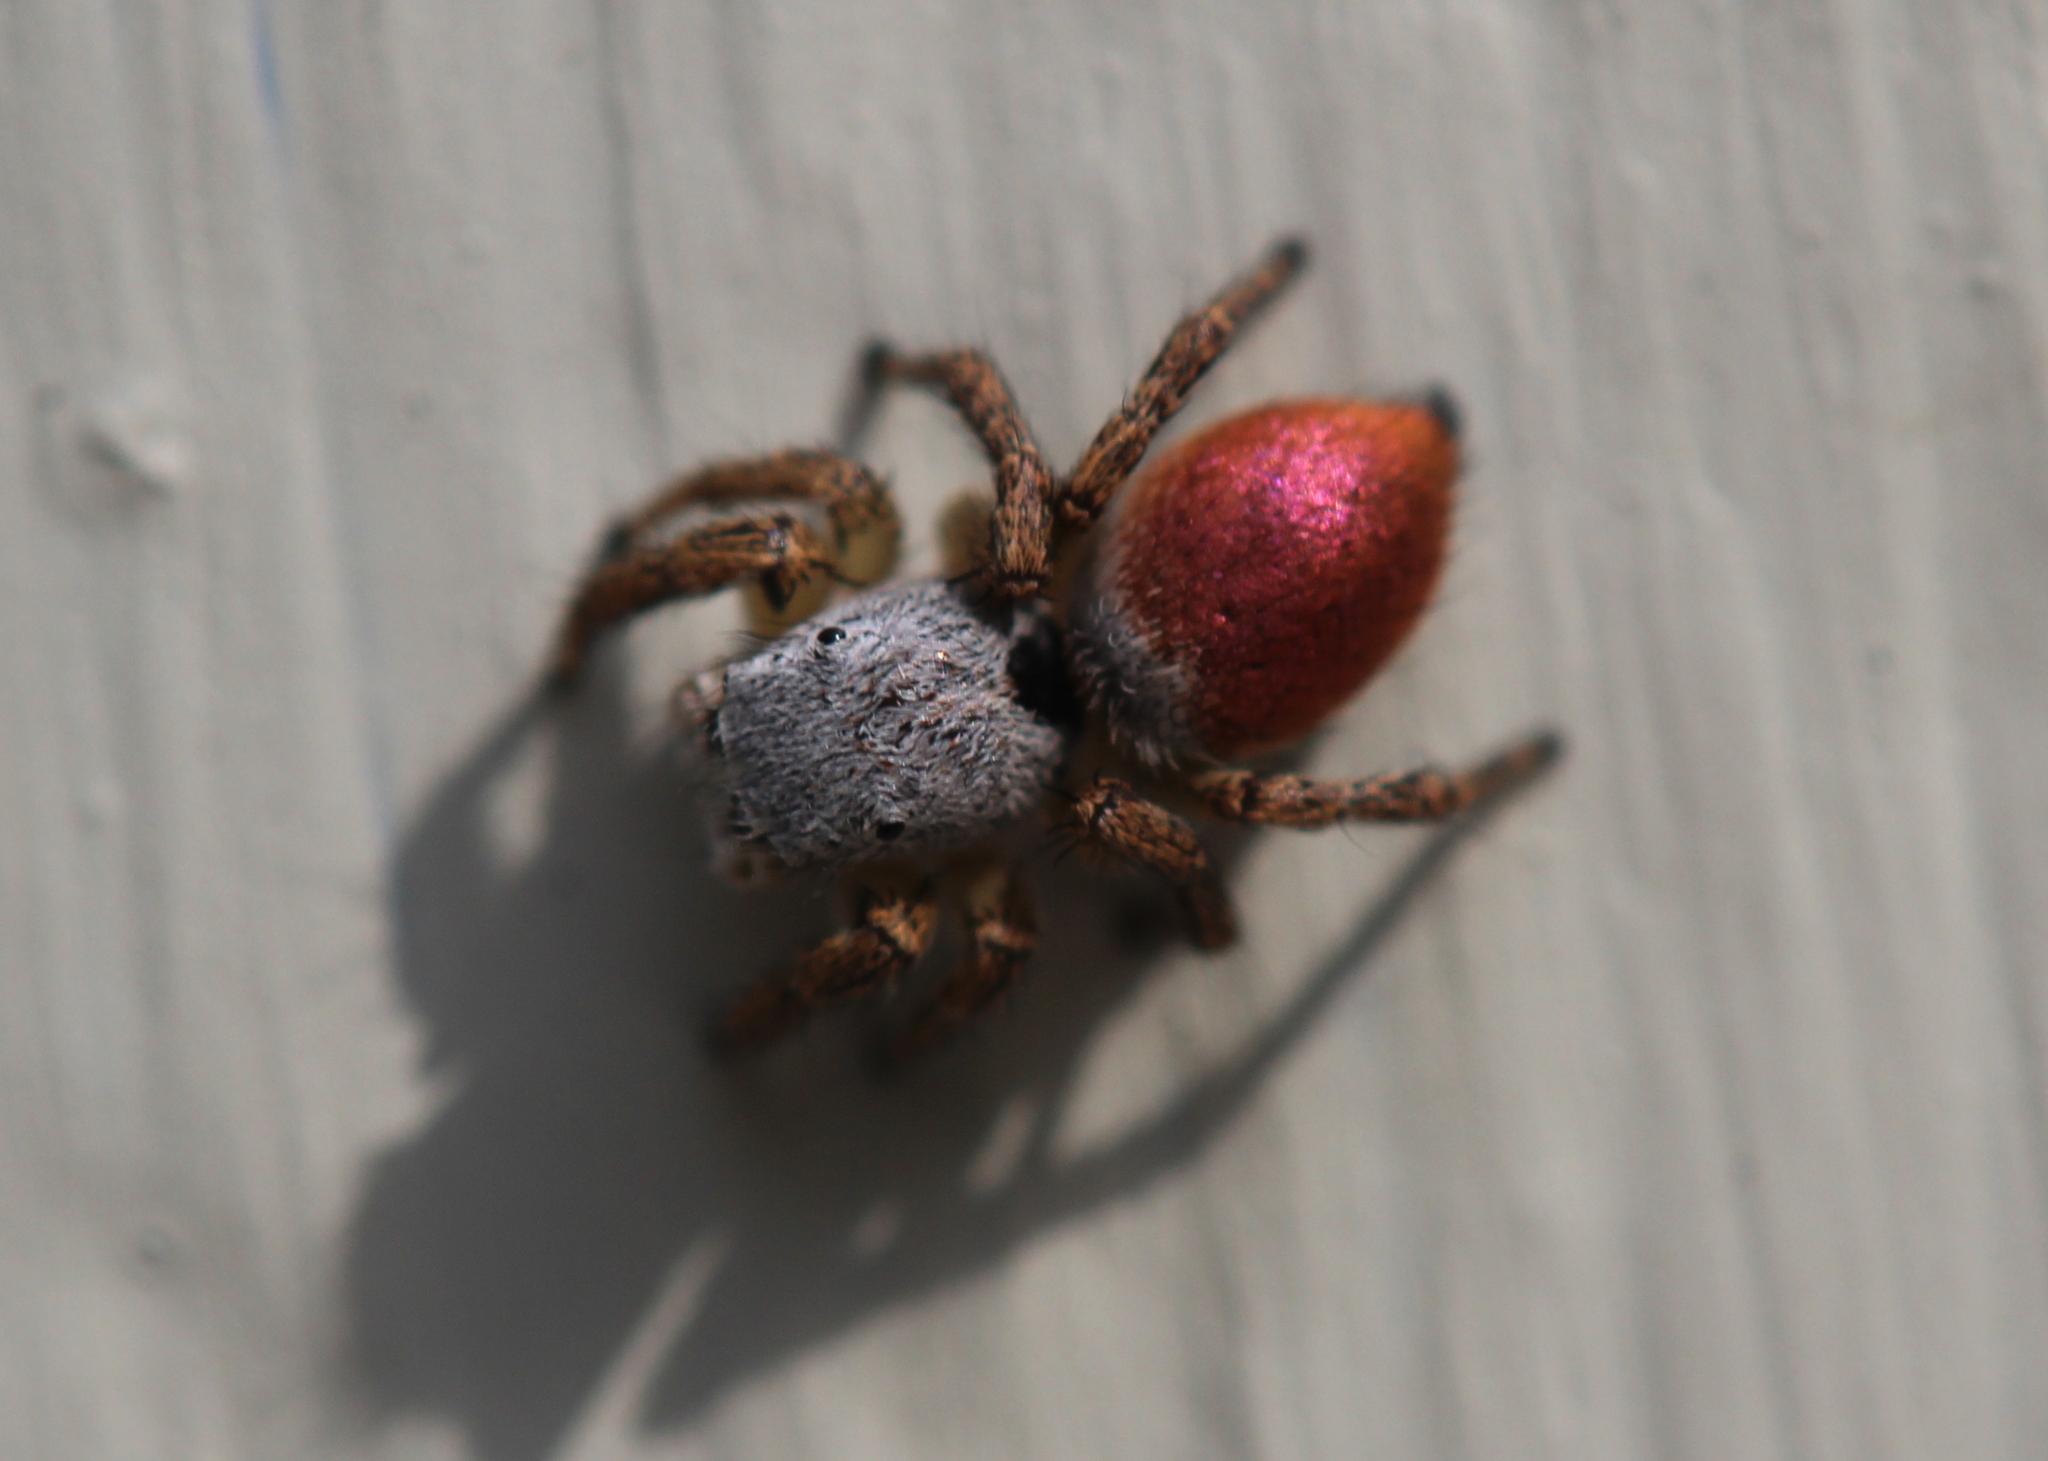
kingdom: Animalia
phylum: Arthropoda
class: Arachnida
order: Araneae
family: Salticidae
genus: Habronattus
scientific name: Habronattus decorus
